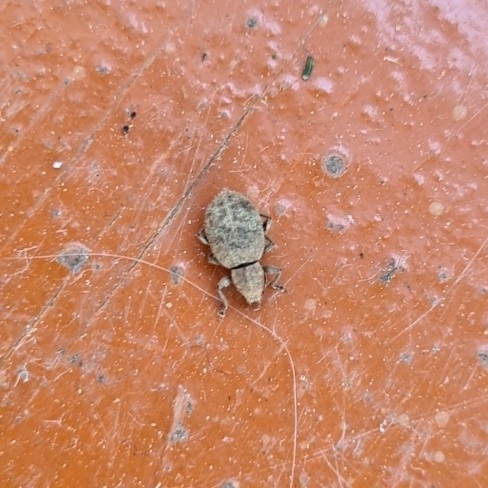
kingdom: Animalia
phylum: Arthropoda
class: Insecta
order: Coleoptera
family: Curculionidae
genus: Sciaphilus
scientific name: Sciaphilus asperatus
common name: Weevil
